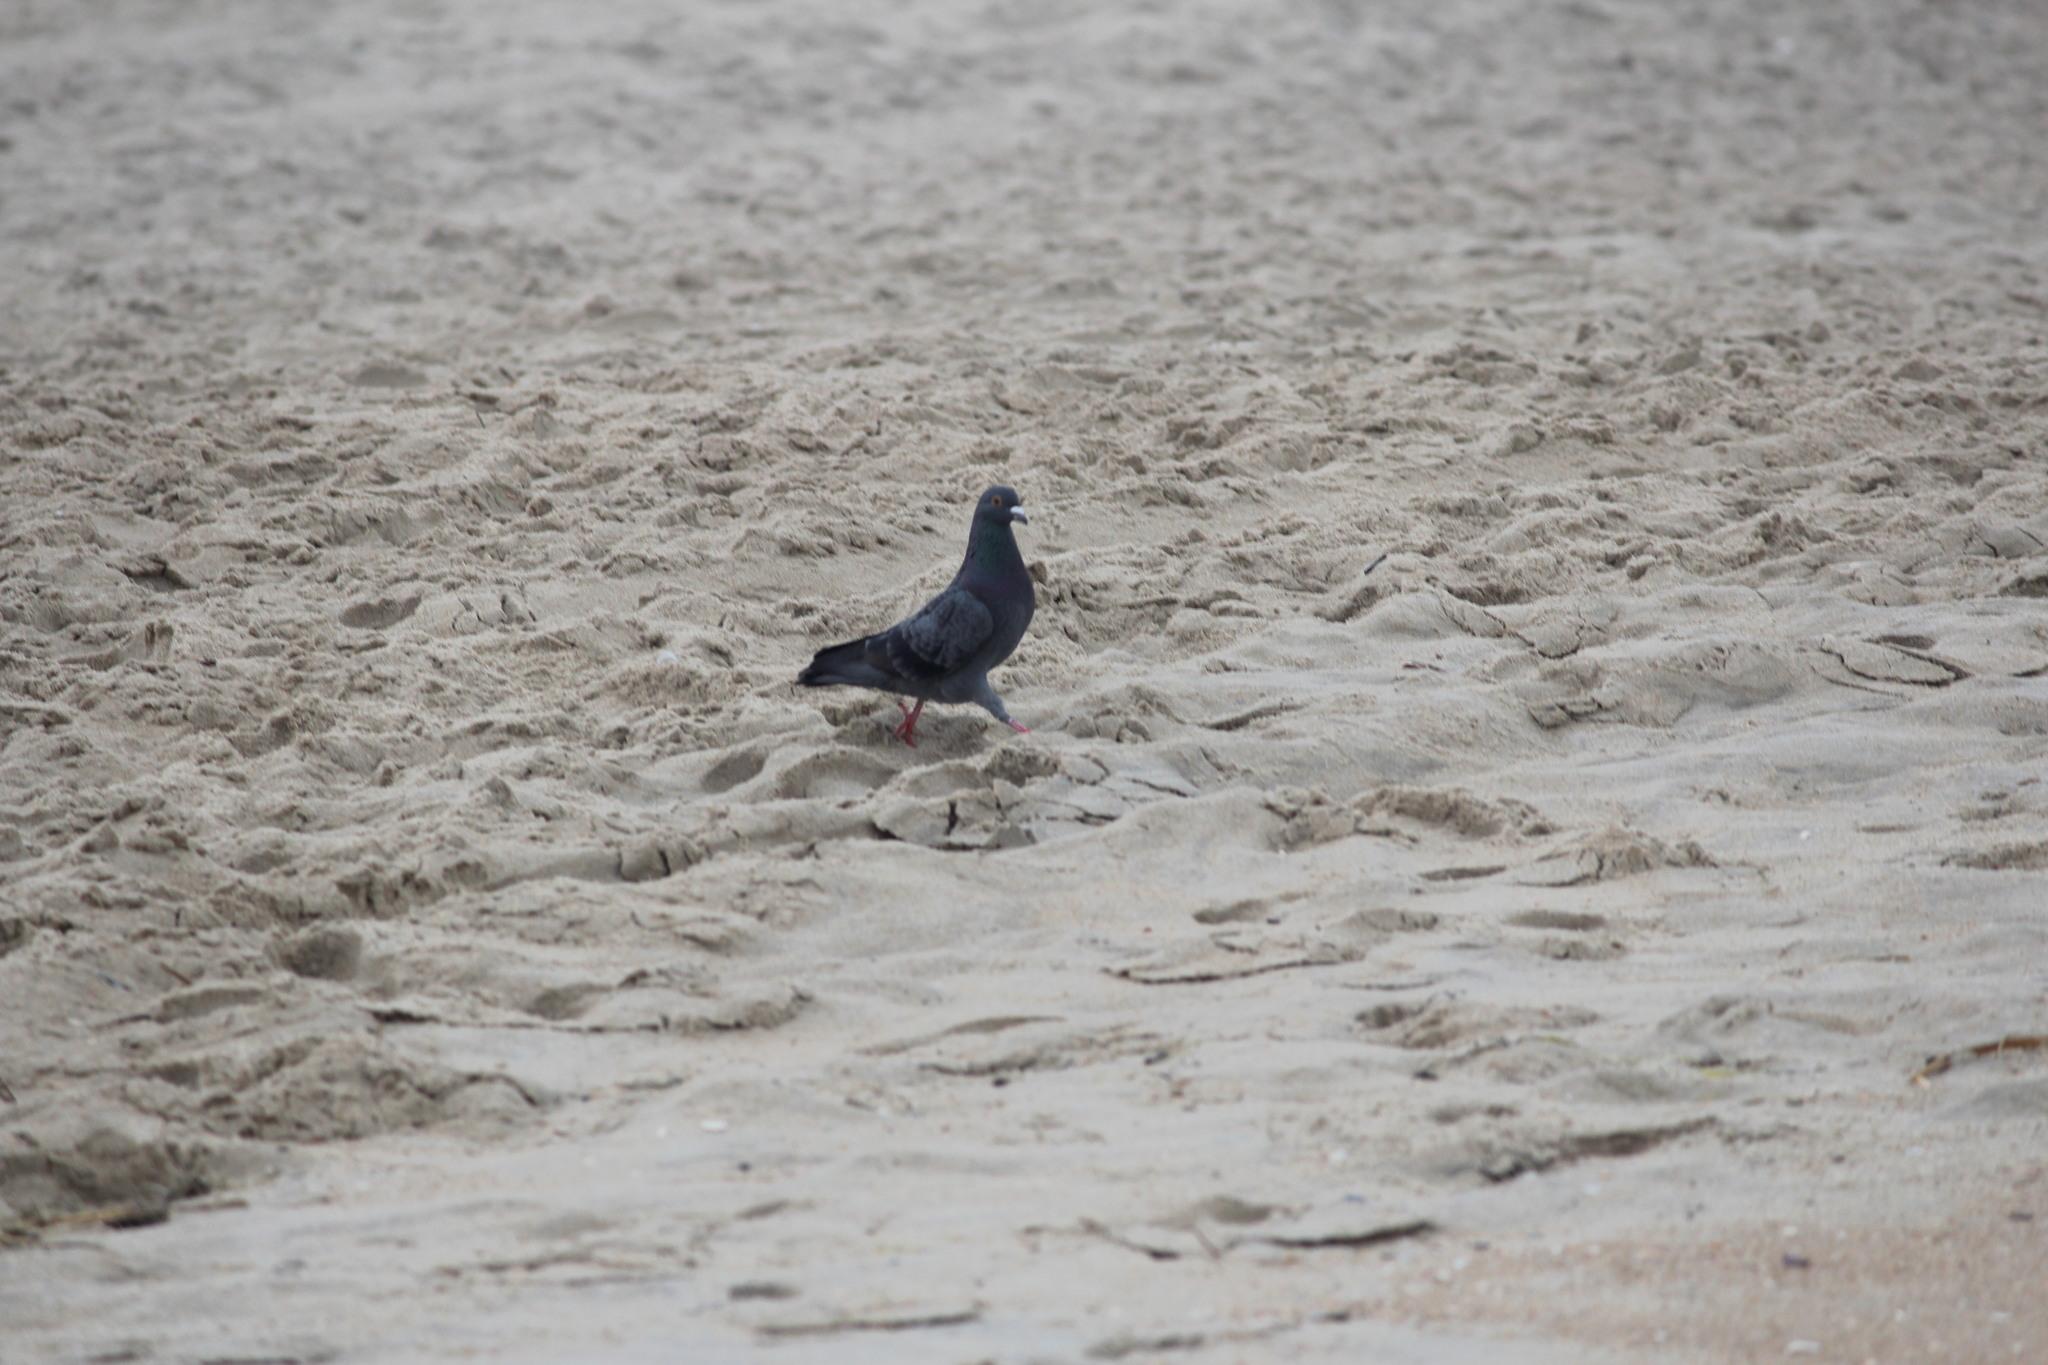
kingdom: Animalia
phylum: Chordata
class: Aves
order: Columbiformes
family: Columbidae
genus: Columba
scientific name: Columba livia
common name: Rock pigeon
